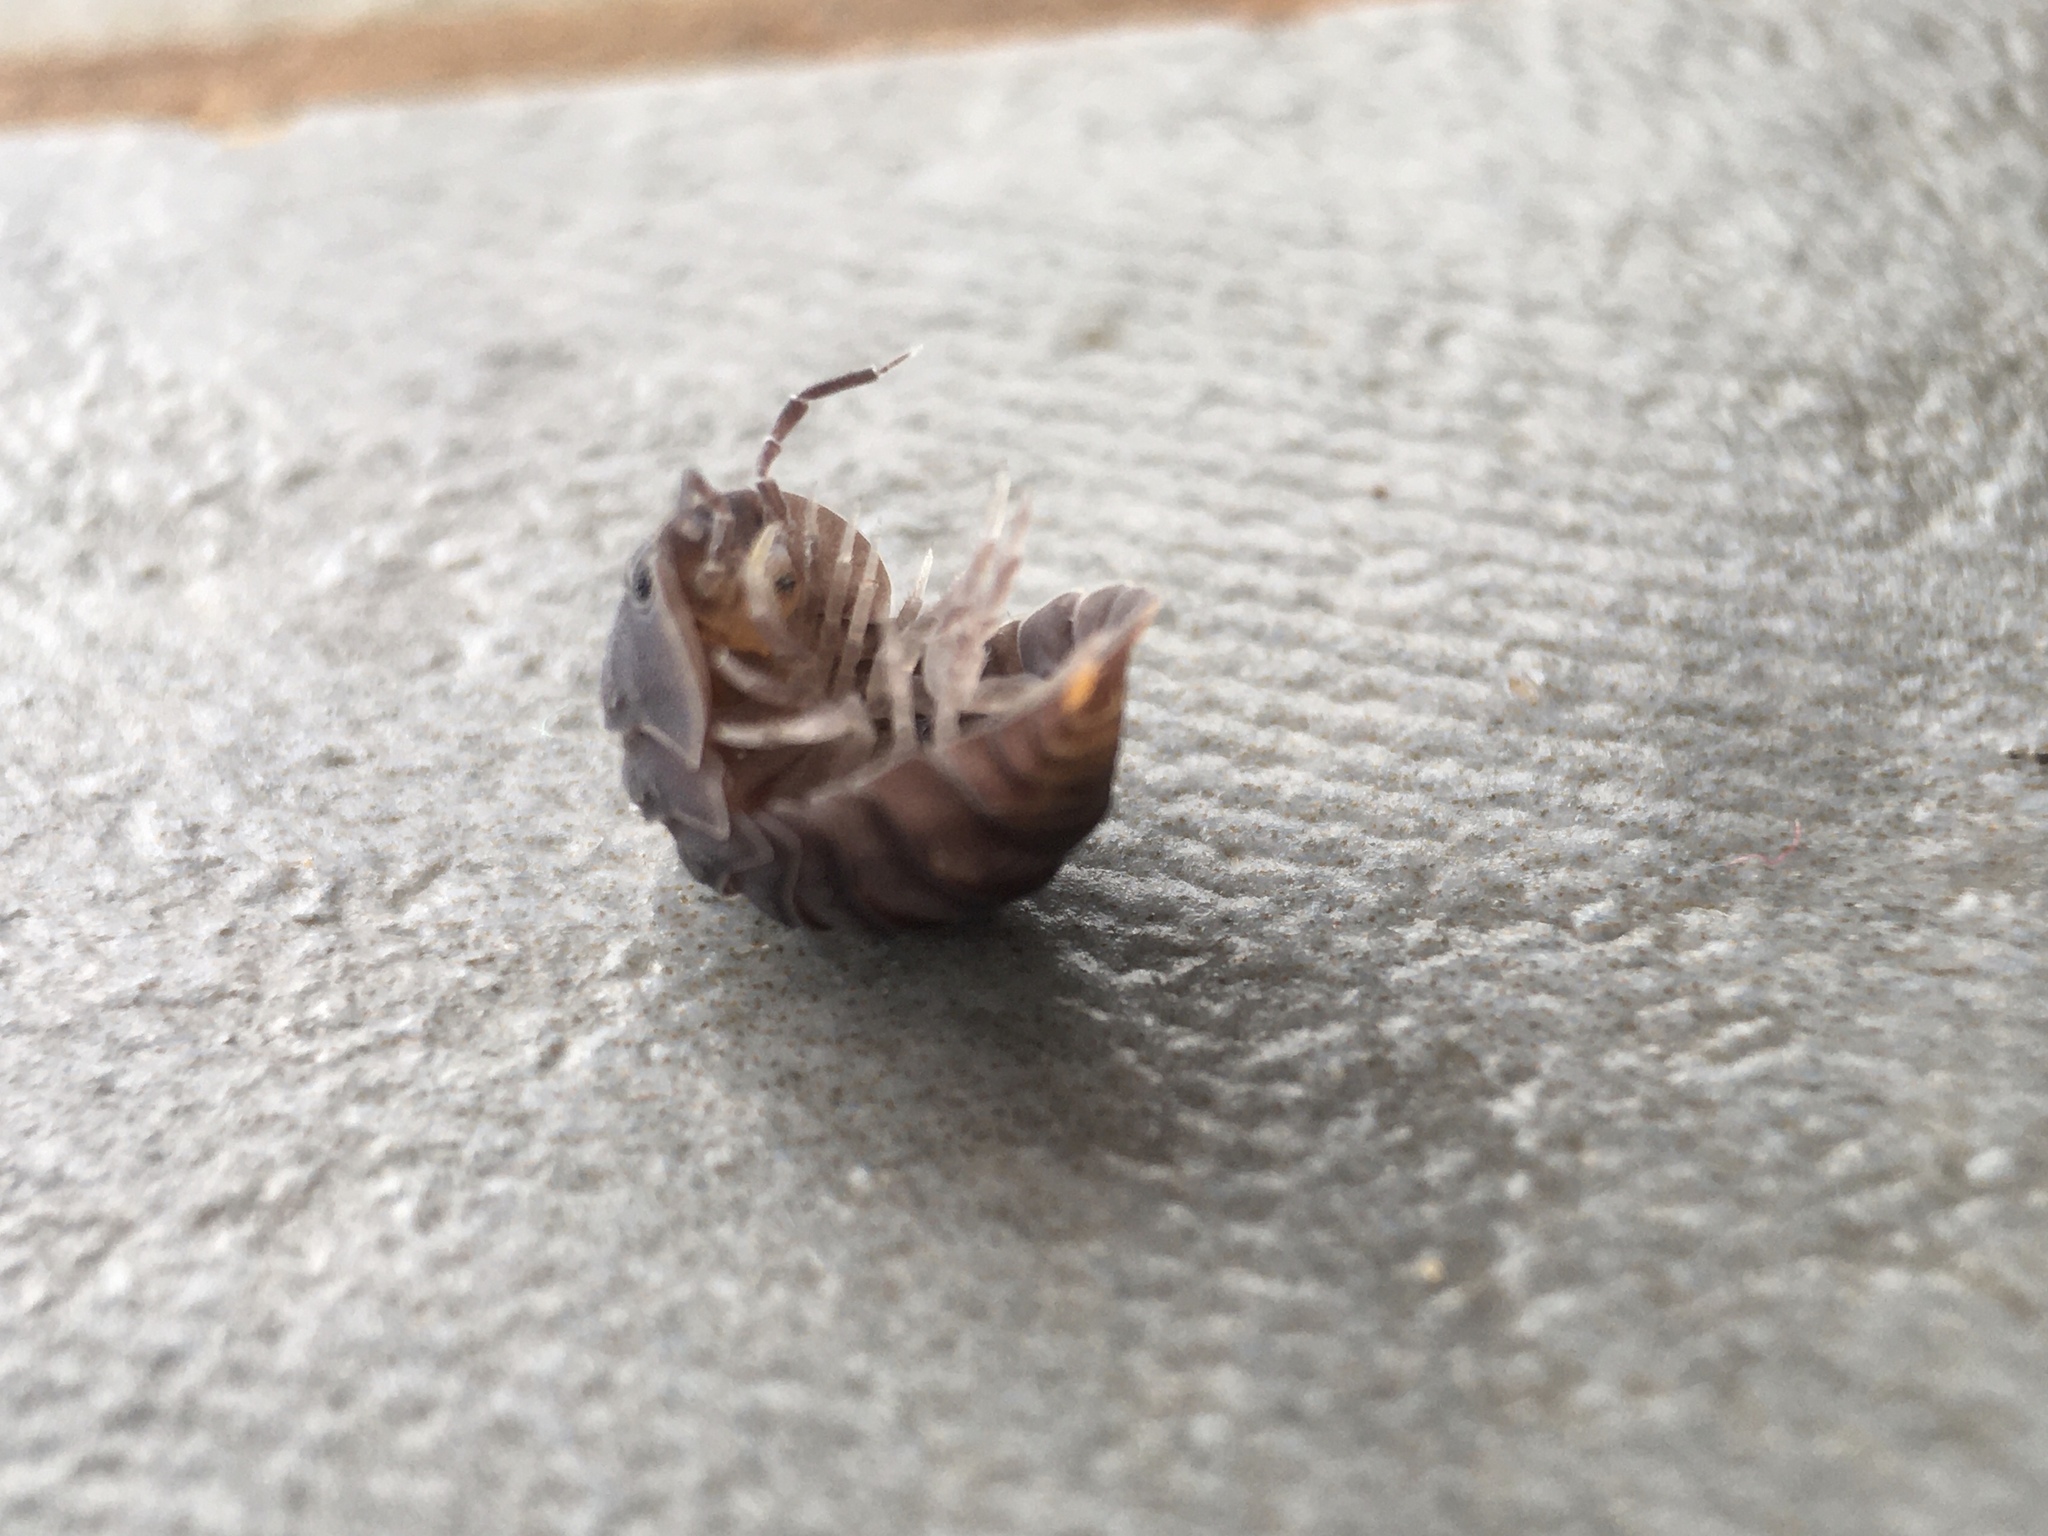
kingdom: Animalia
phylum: Arthropoda
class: Malacostraca
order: Isopoda
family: Armadillidae
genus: Cubaris
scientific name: Cubaris murina
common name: Pillbug
